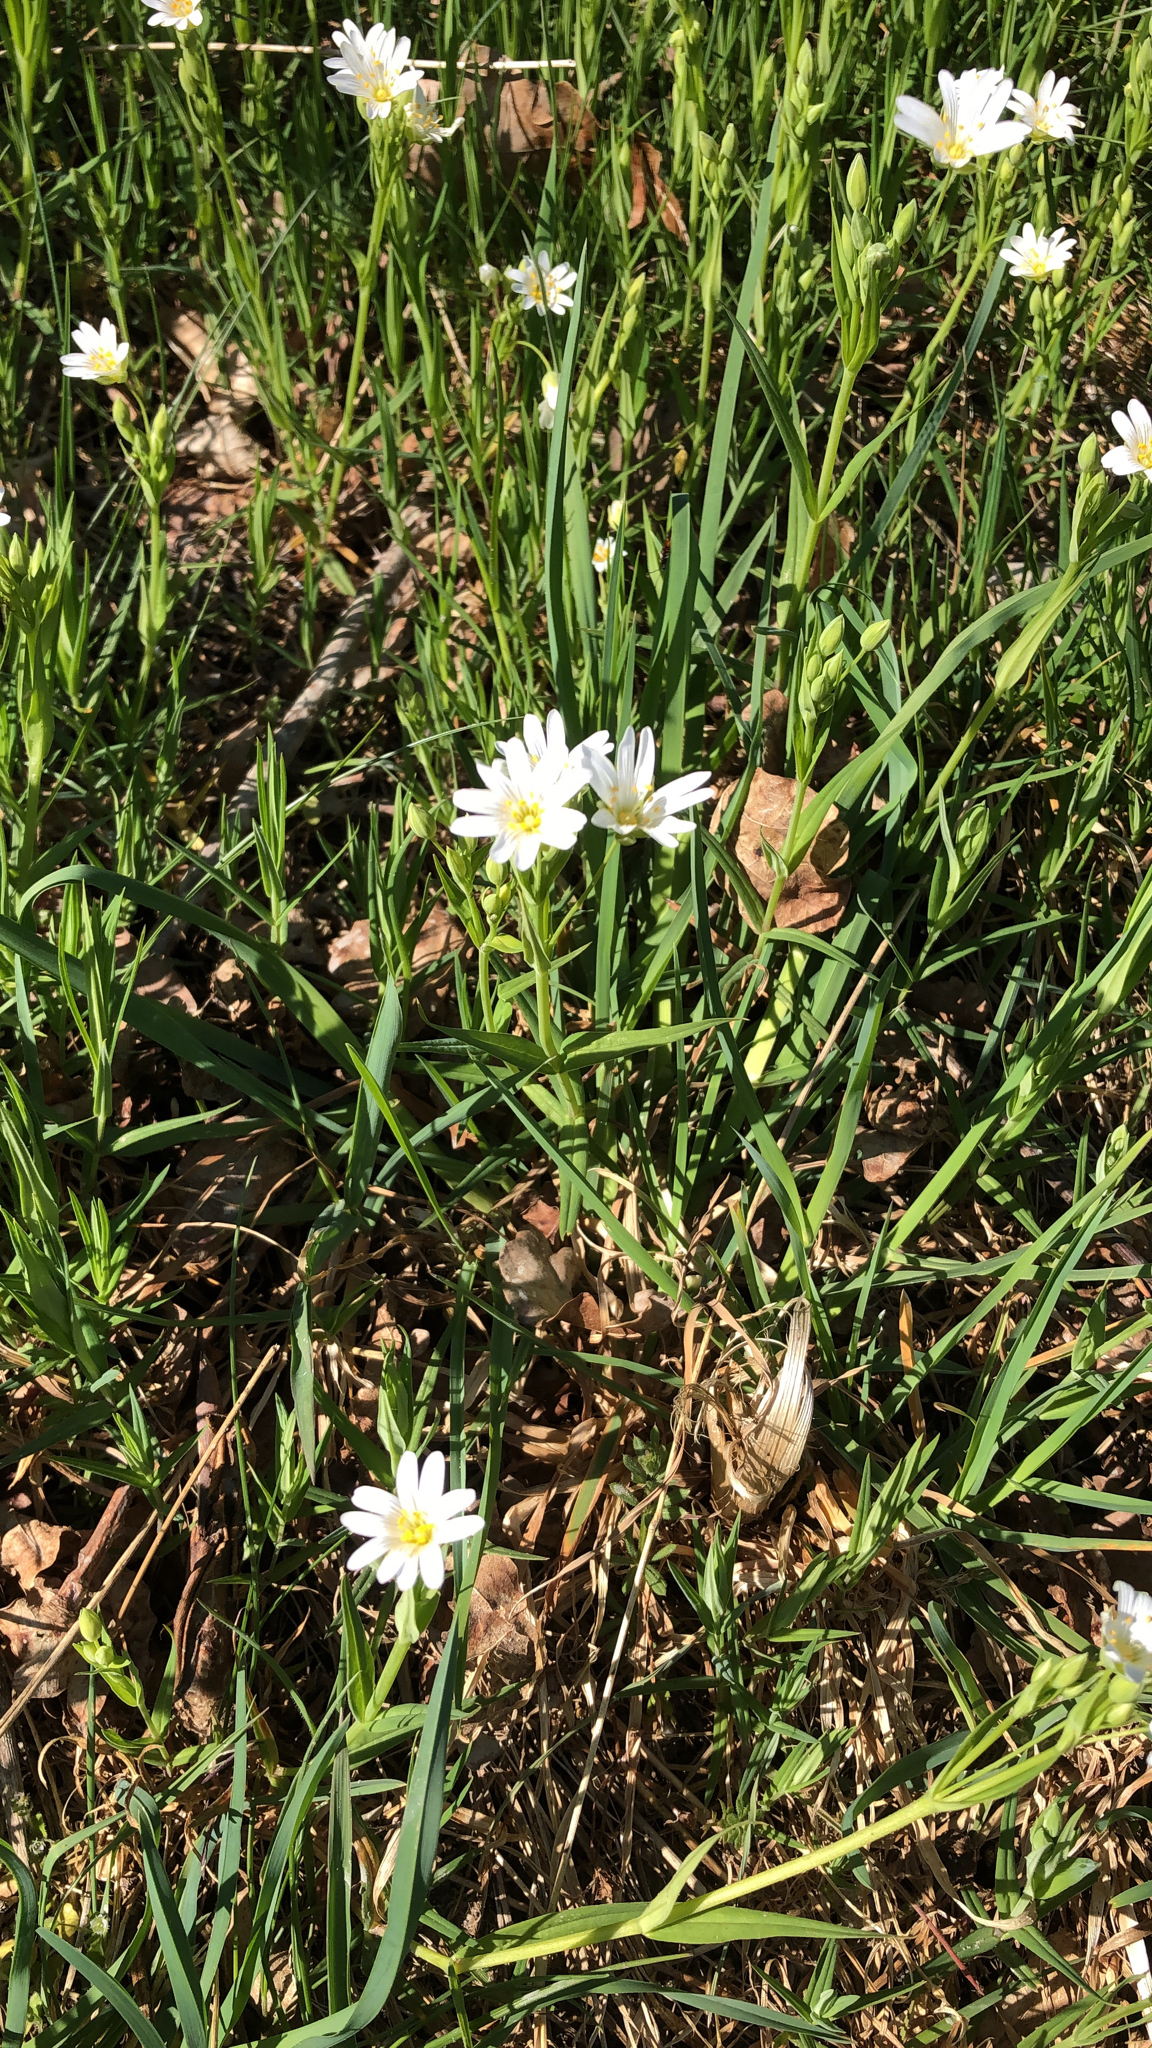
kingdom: Plantae
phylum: Tracheophyta
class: Magnoliopsida
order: Caryophyllales
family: Caryophyllaceae
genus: Rabelera
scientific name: Rabelera holostea
